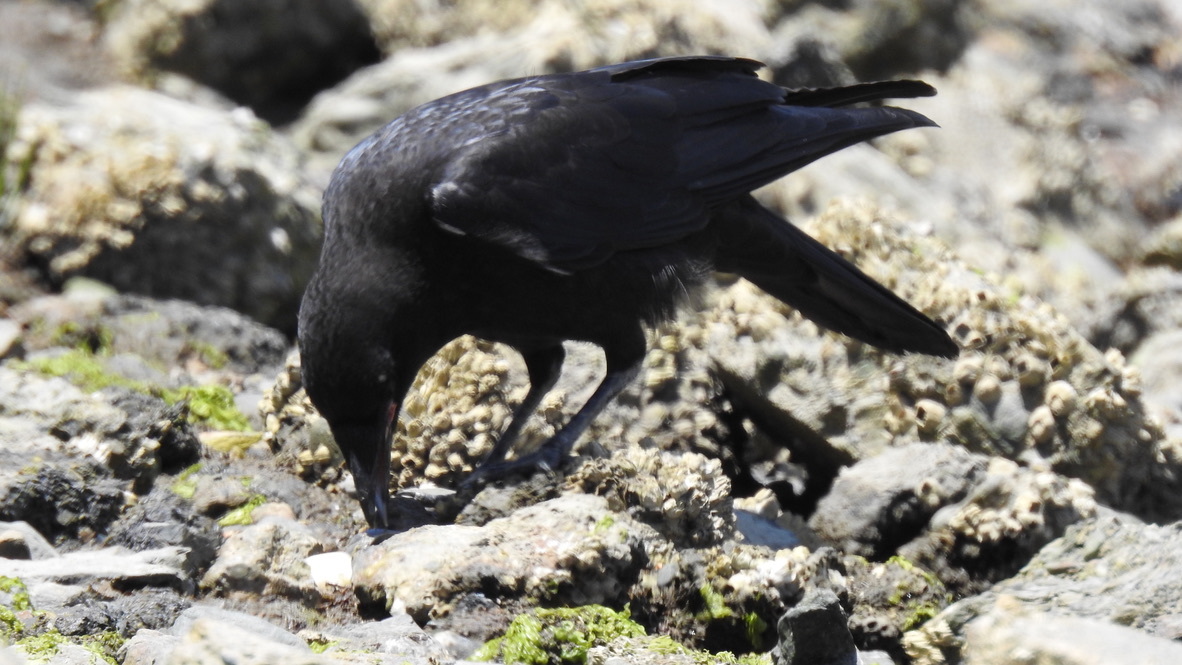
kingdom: Animalia
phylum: Chordata
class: Aves
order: Passeriformes
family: Corvidae
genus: Corvus
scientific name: Corvus brachyrhynchos
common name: American crow
